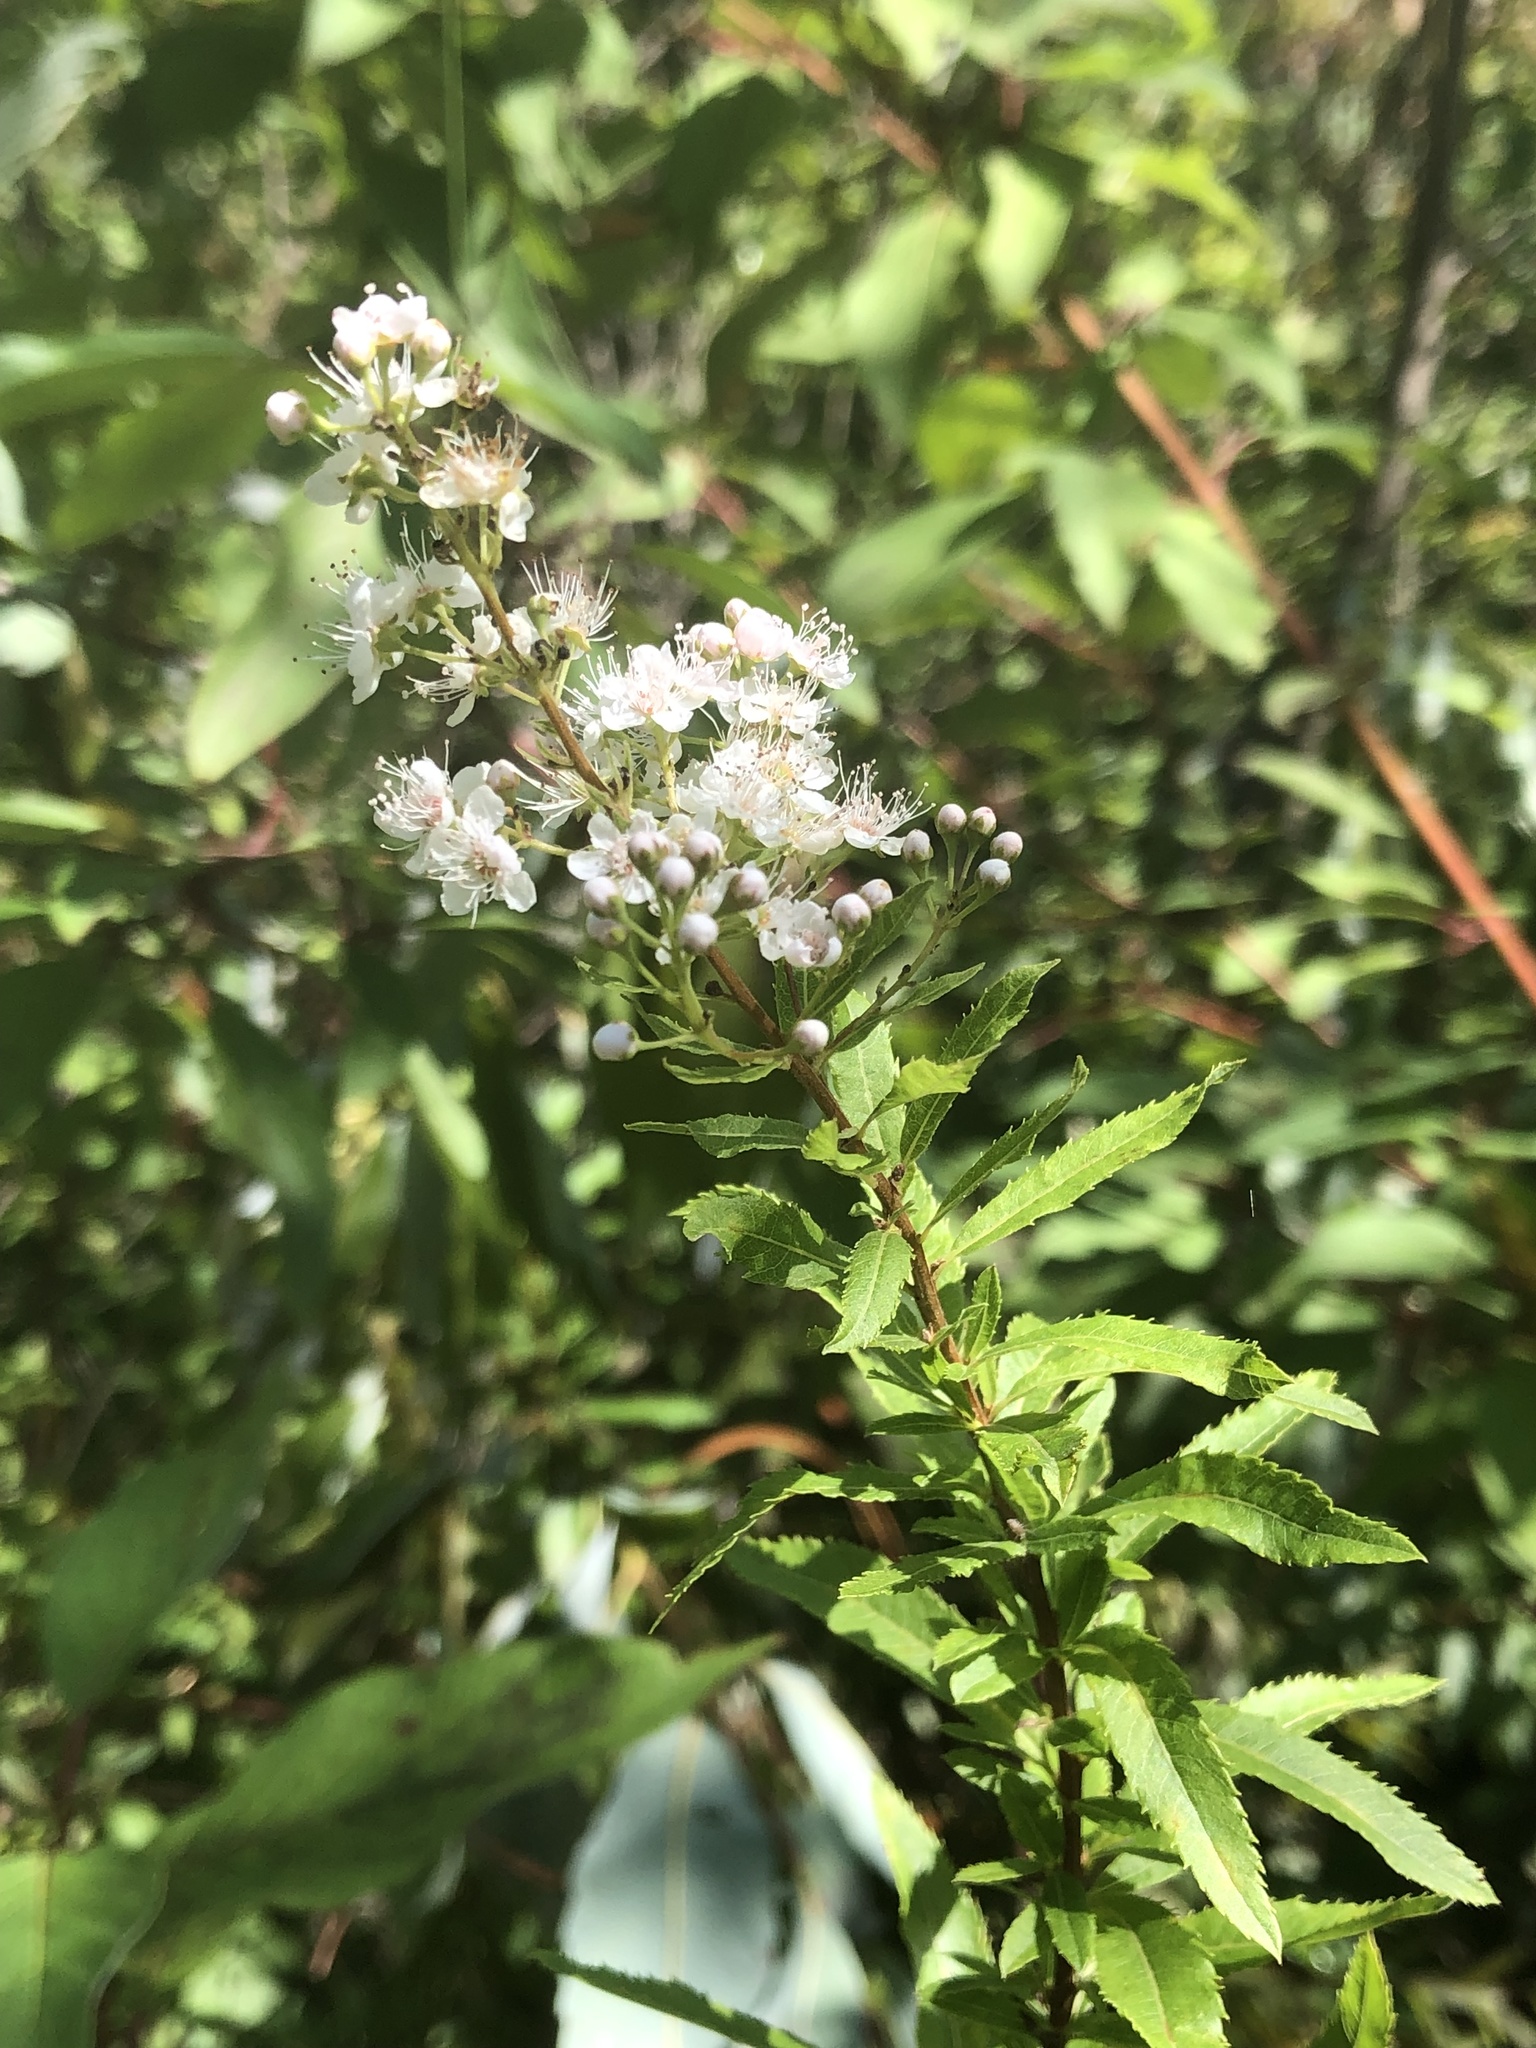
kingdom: Plantae
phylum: Tracheophyta
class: Magnoliopsida
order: Rosales
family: Rosaceae
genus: Spiraea
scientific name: Spiraea alba
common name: Pale bridewort
